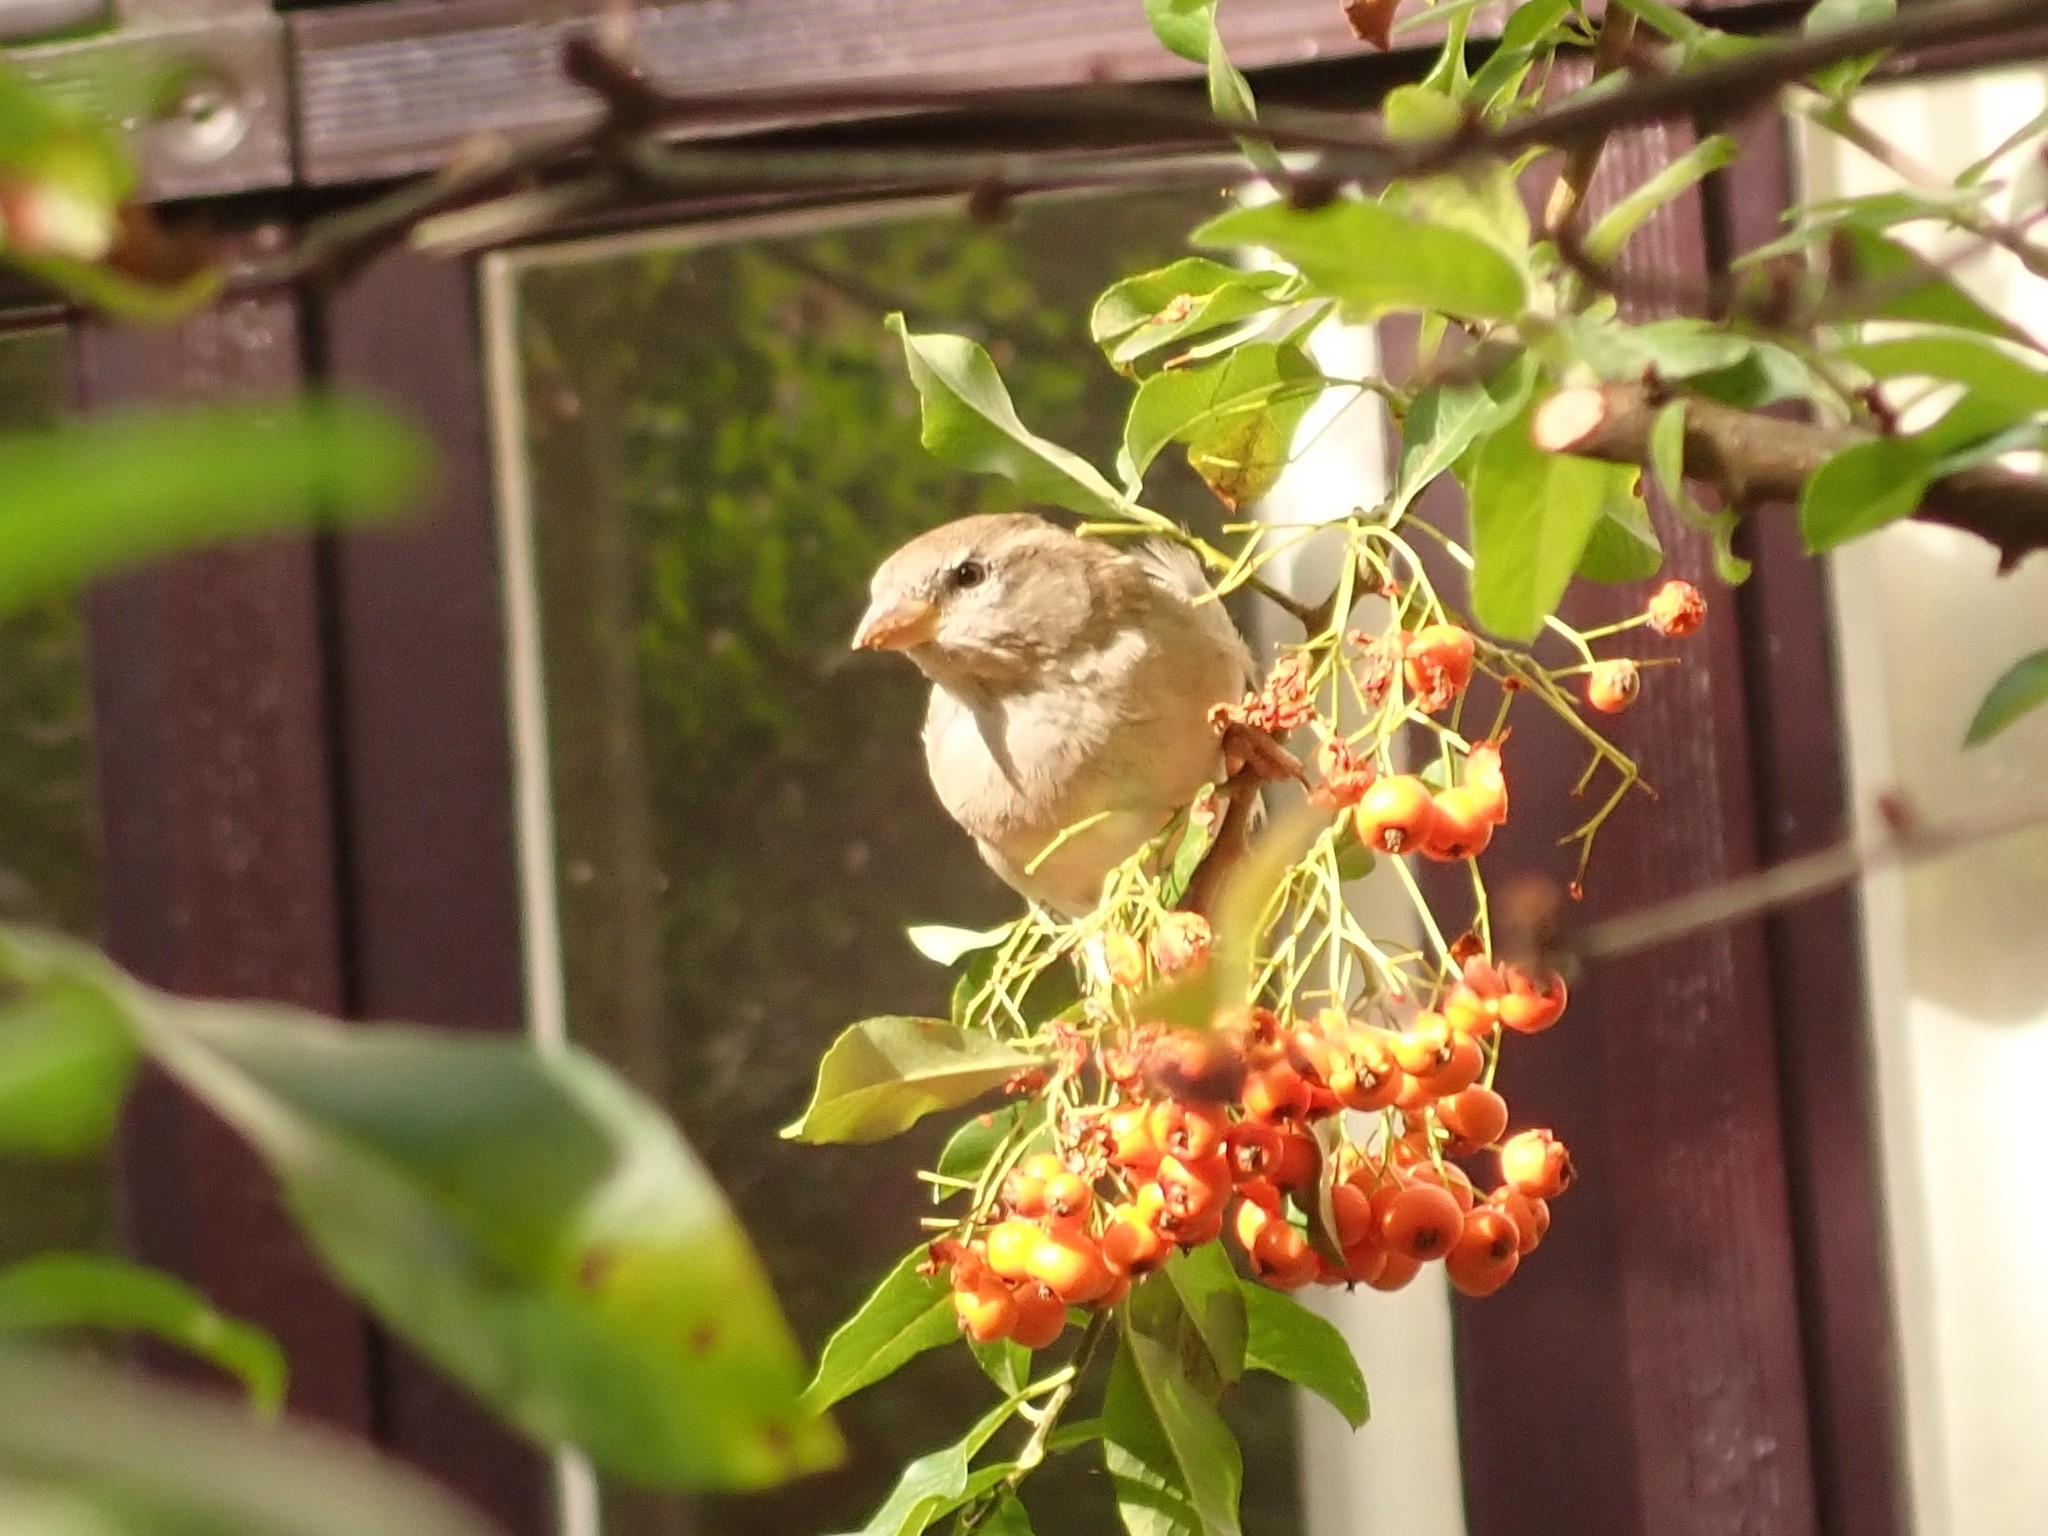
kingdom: Animalia
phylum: Chordata
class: Aves
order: Passeriformes
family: Passeridae
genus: Passer
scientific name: Passer domesticus
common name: House sparrow
